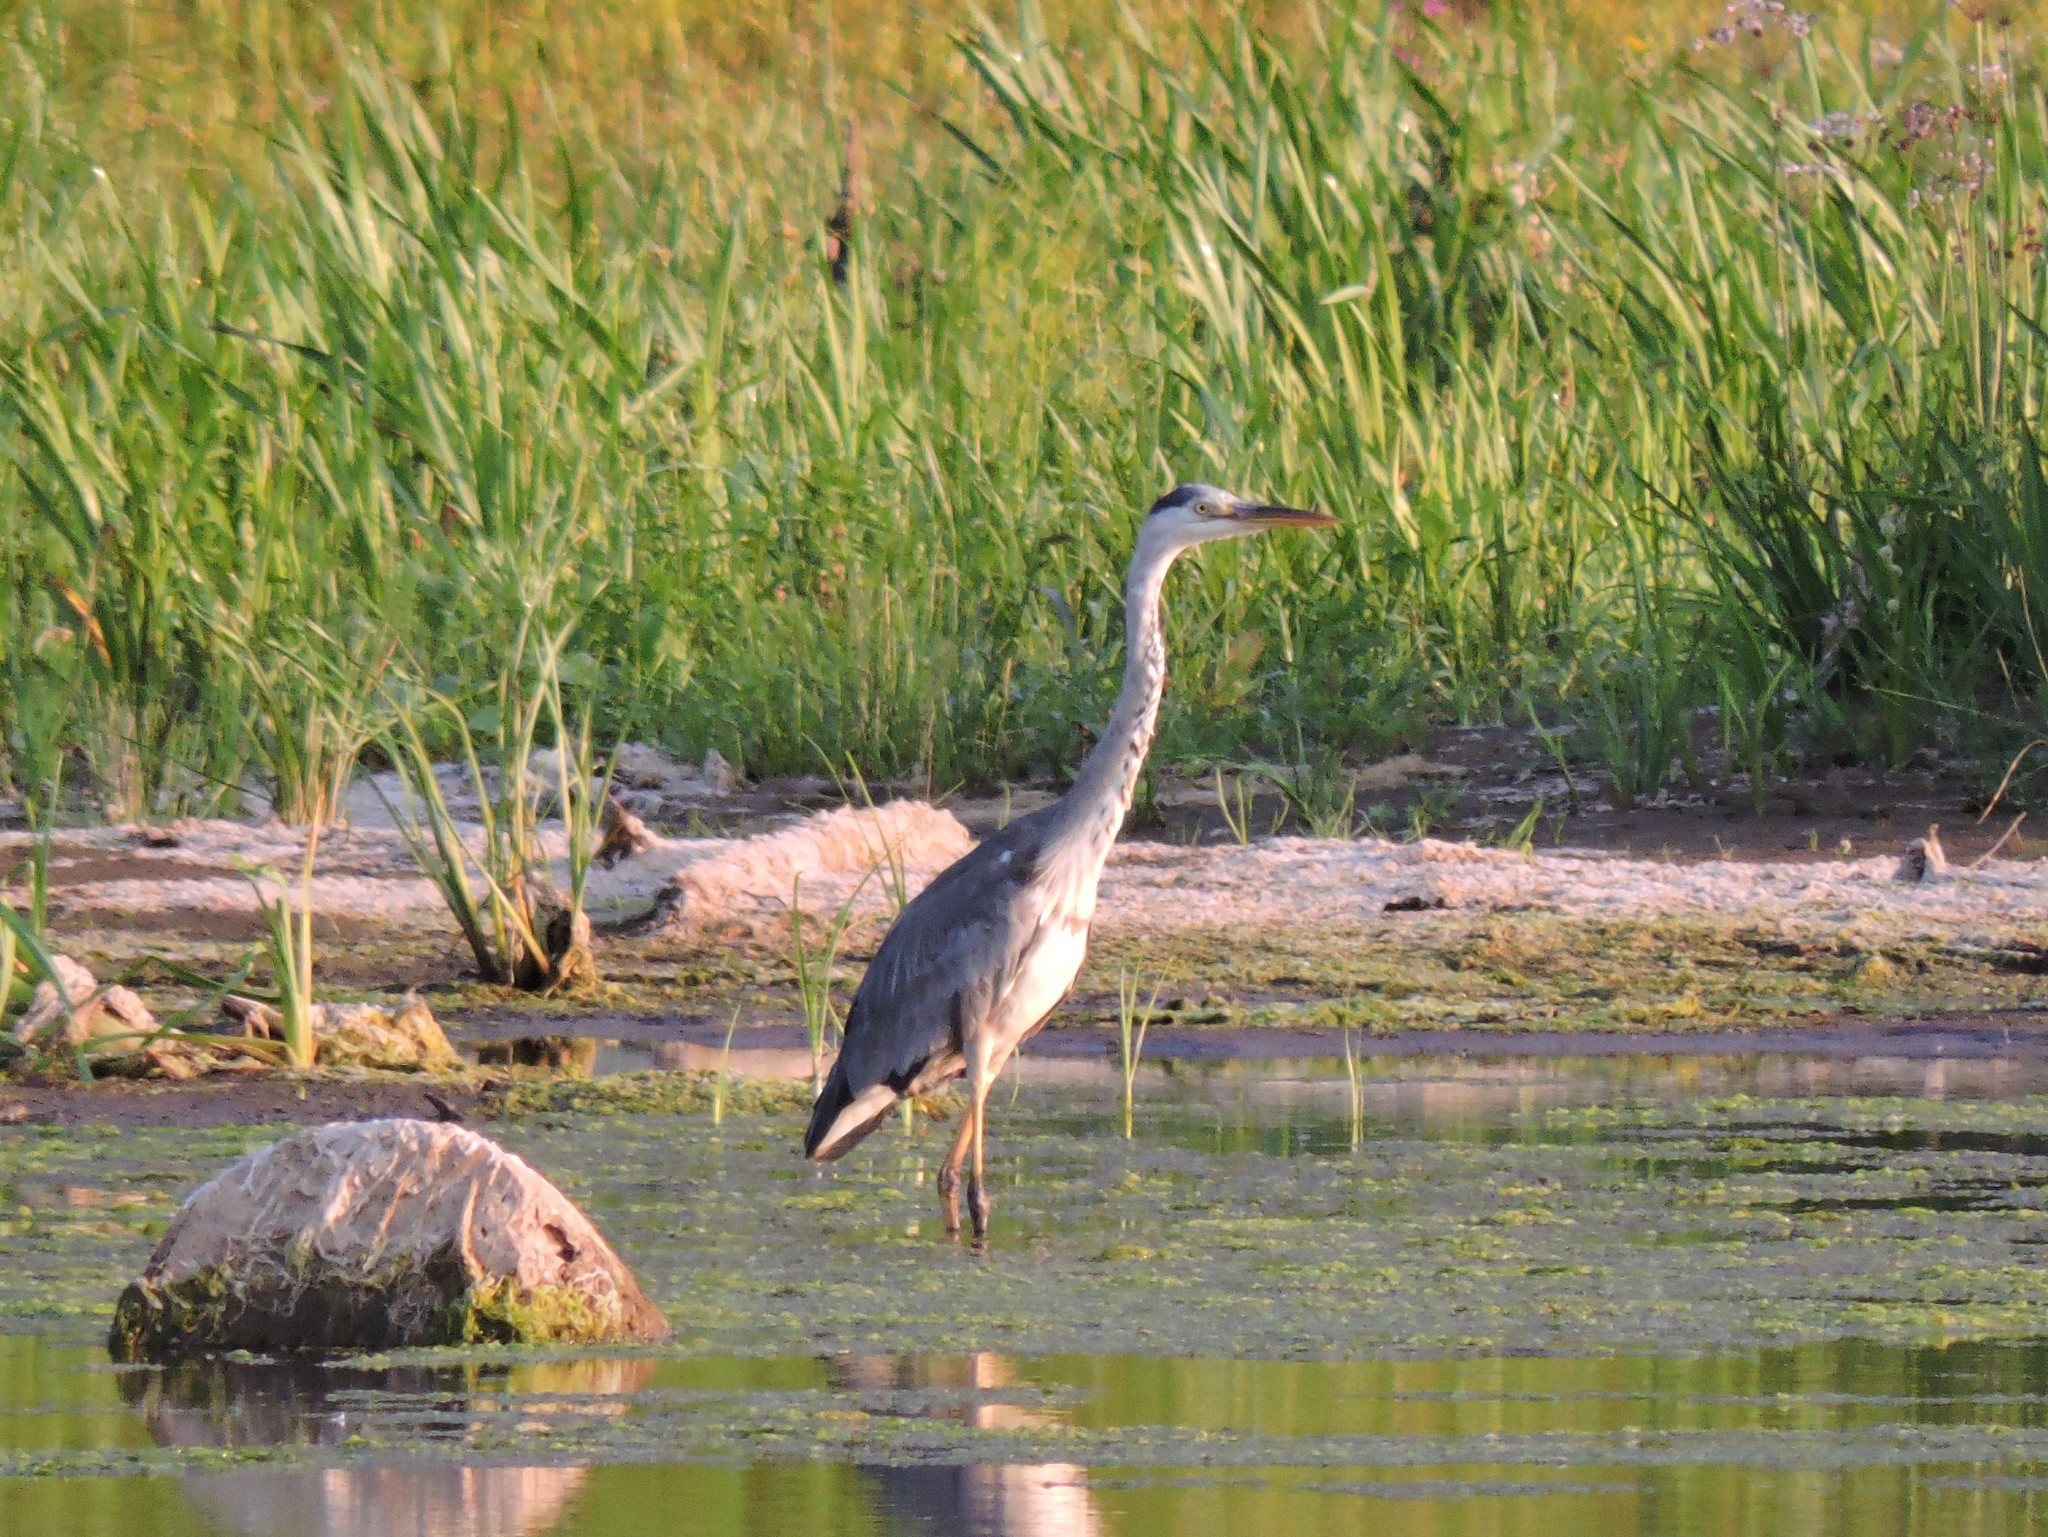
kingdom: Animalia
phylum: Chordata
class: Aves
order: Pelecaniformes
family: Ardeidae
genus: Ardea
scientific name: Ardea cinerea
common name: Grey heron
